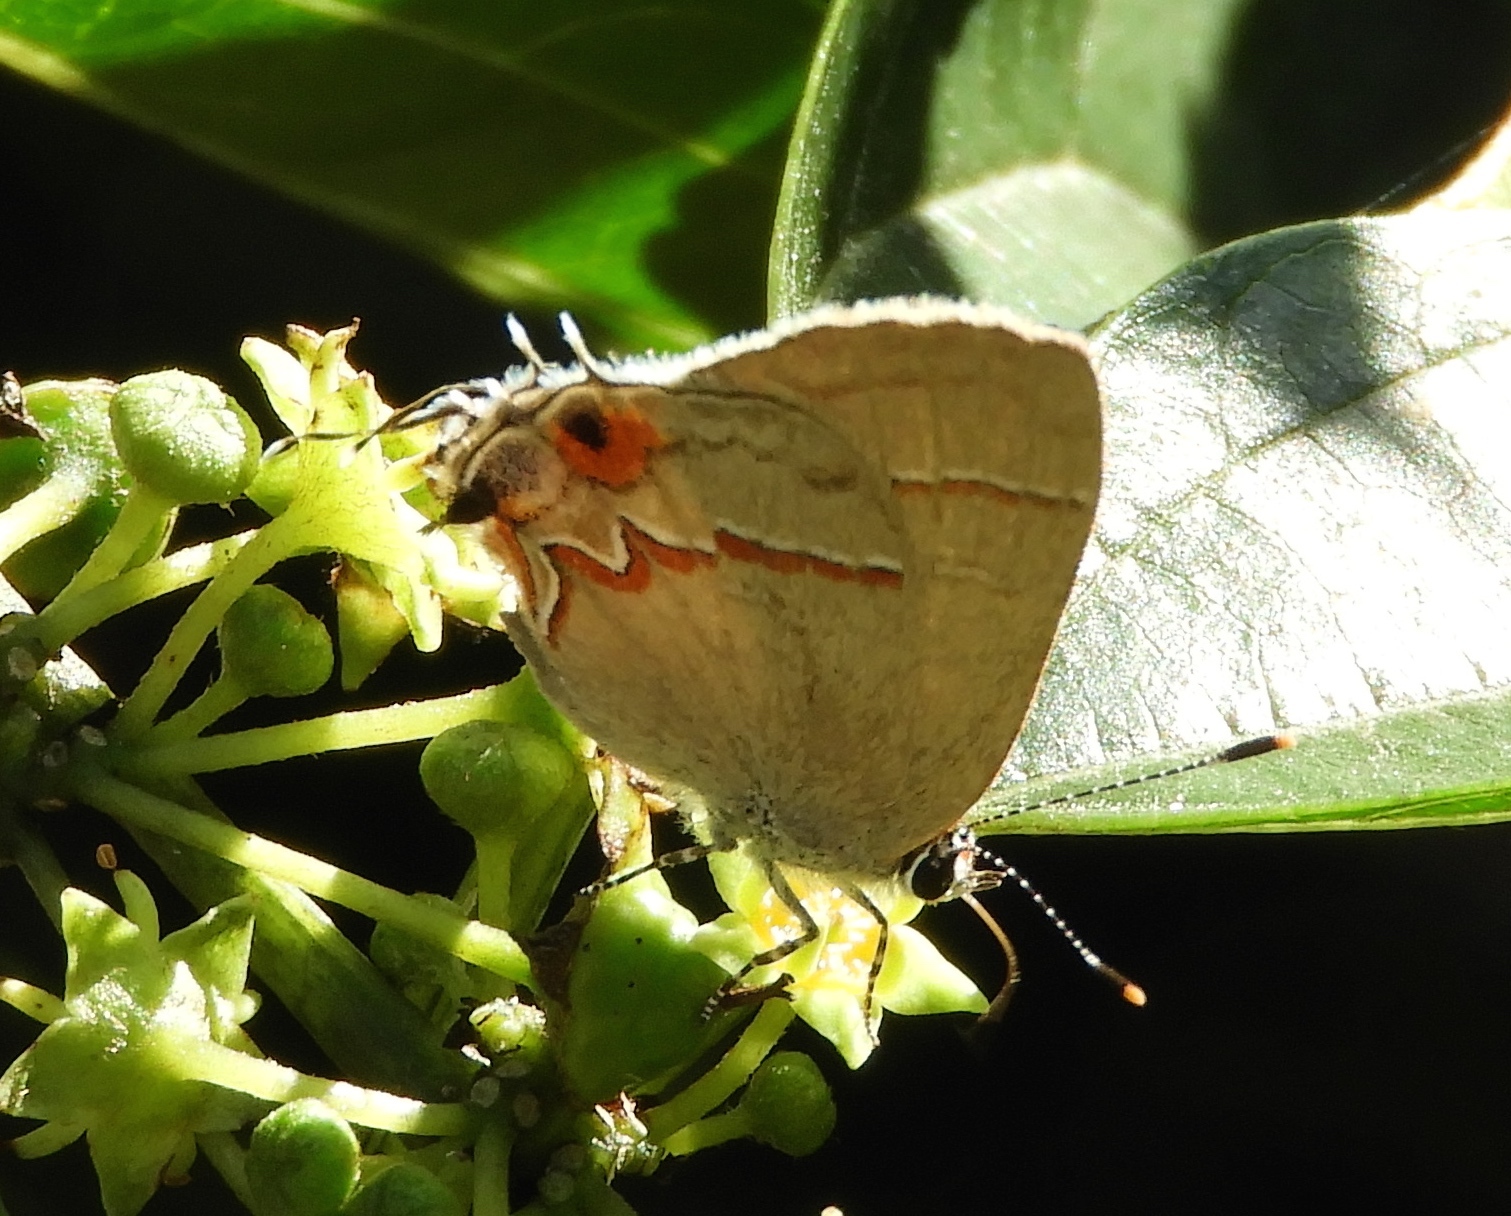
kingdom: Animalia
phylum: Arthropoda
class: Insecta
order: Lepidoptera
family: Lycaenidae
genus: Electrostrymon
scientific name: Electrostrymon endymion
